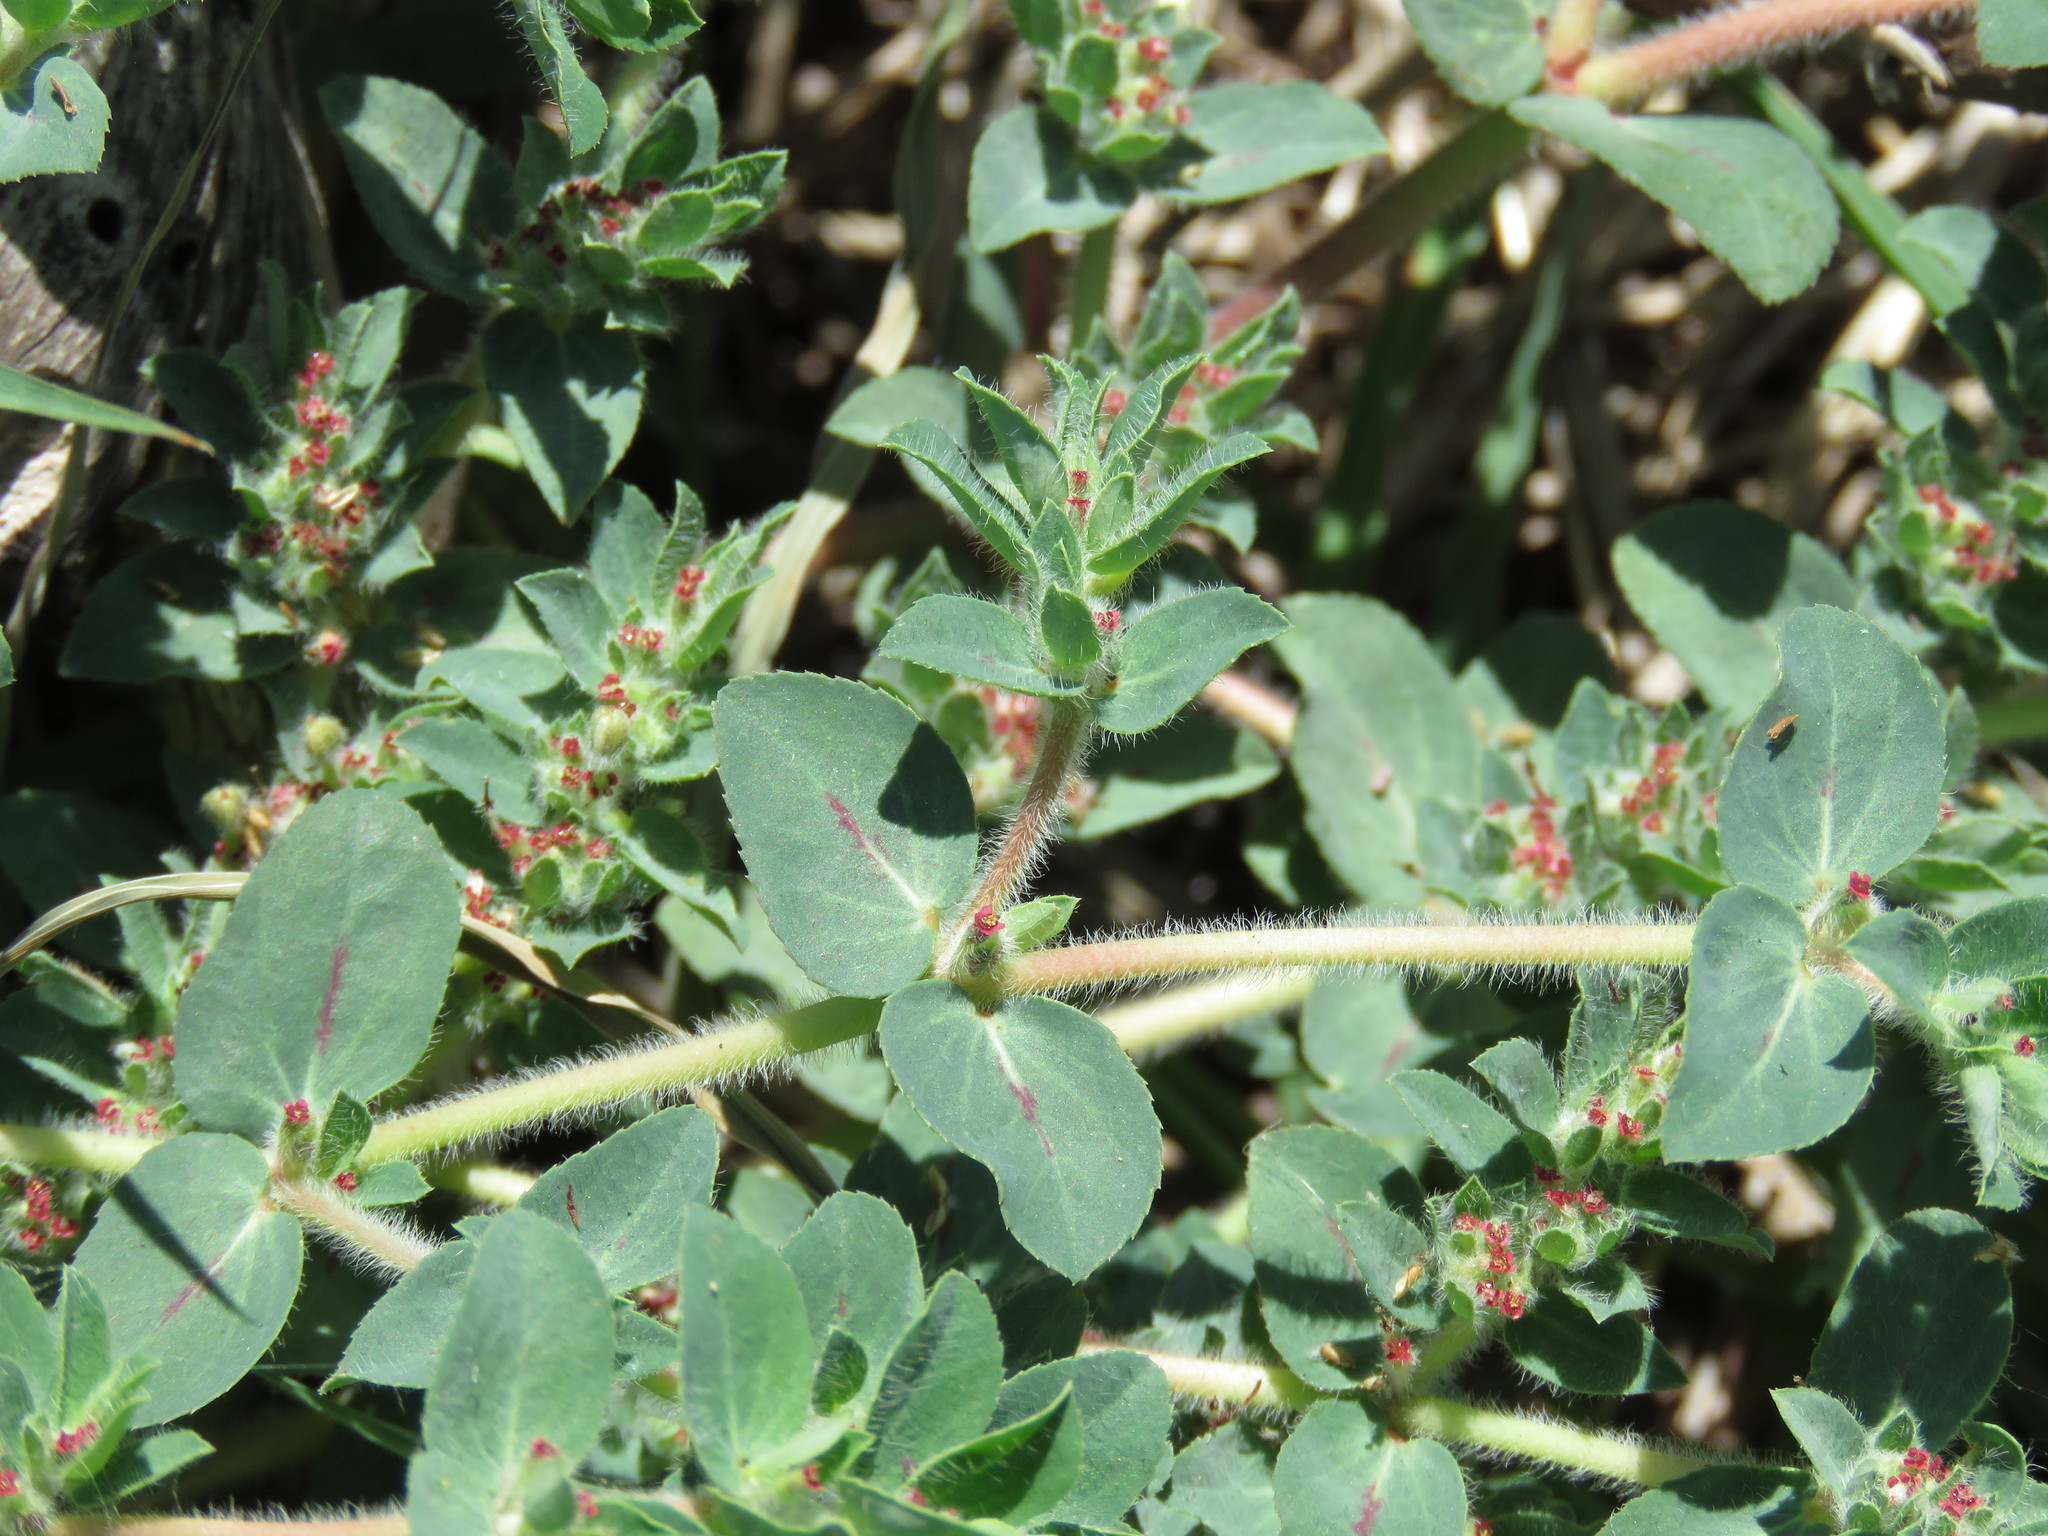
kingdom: Plantae
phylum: Tracheophyta
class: Magnoliopsida
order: Malpighiales
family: Euphorbiaceae
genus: Euphorbia
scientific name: Euphorbia velleriflora
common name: Caliche sandmat
